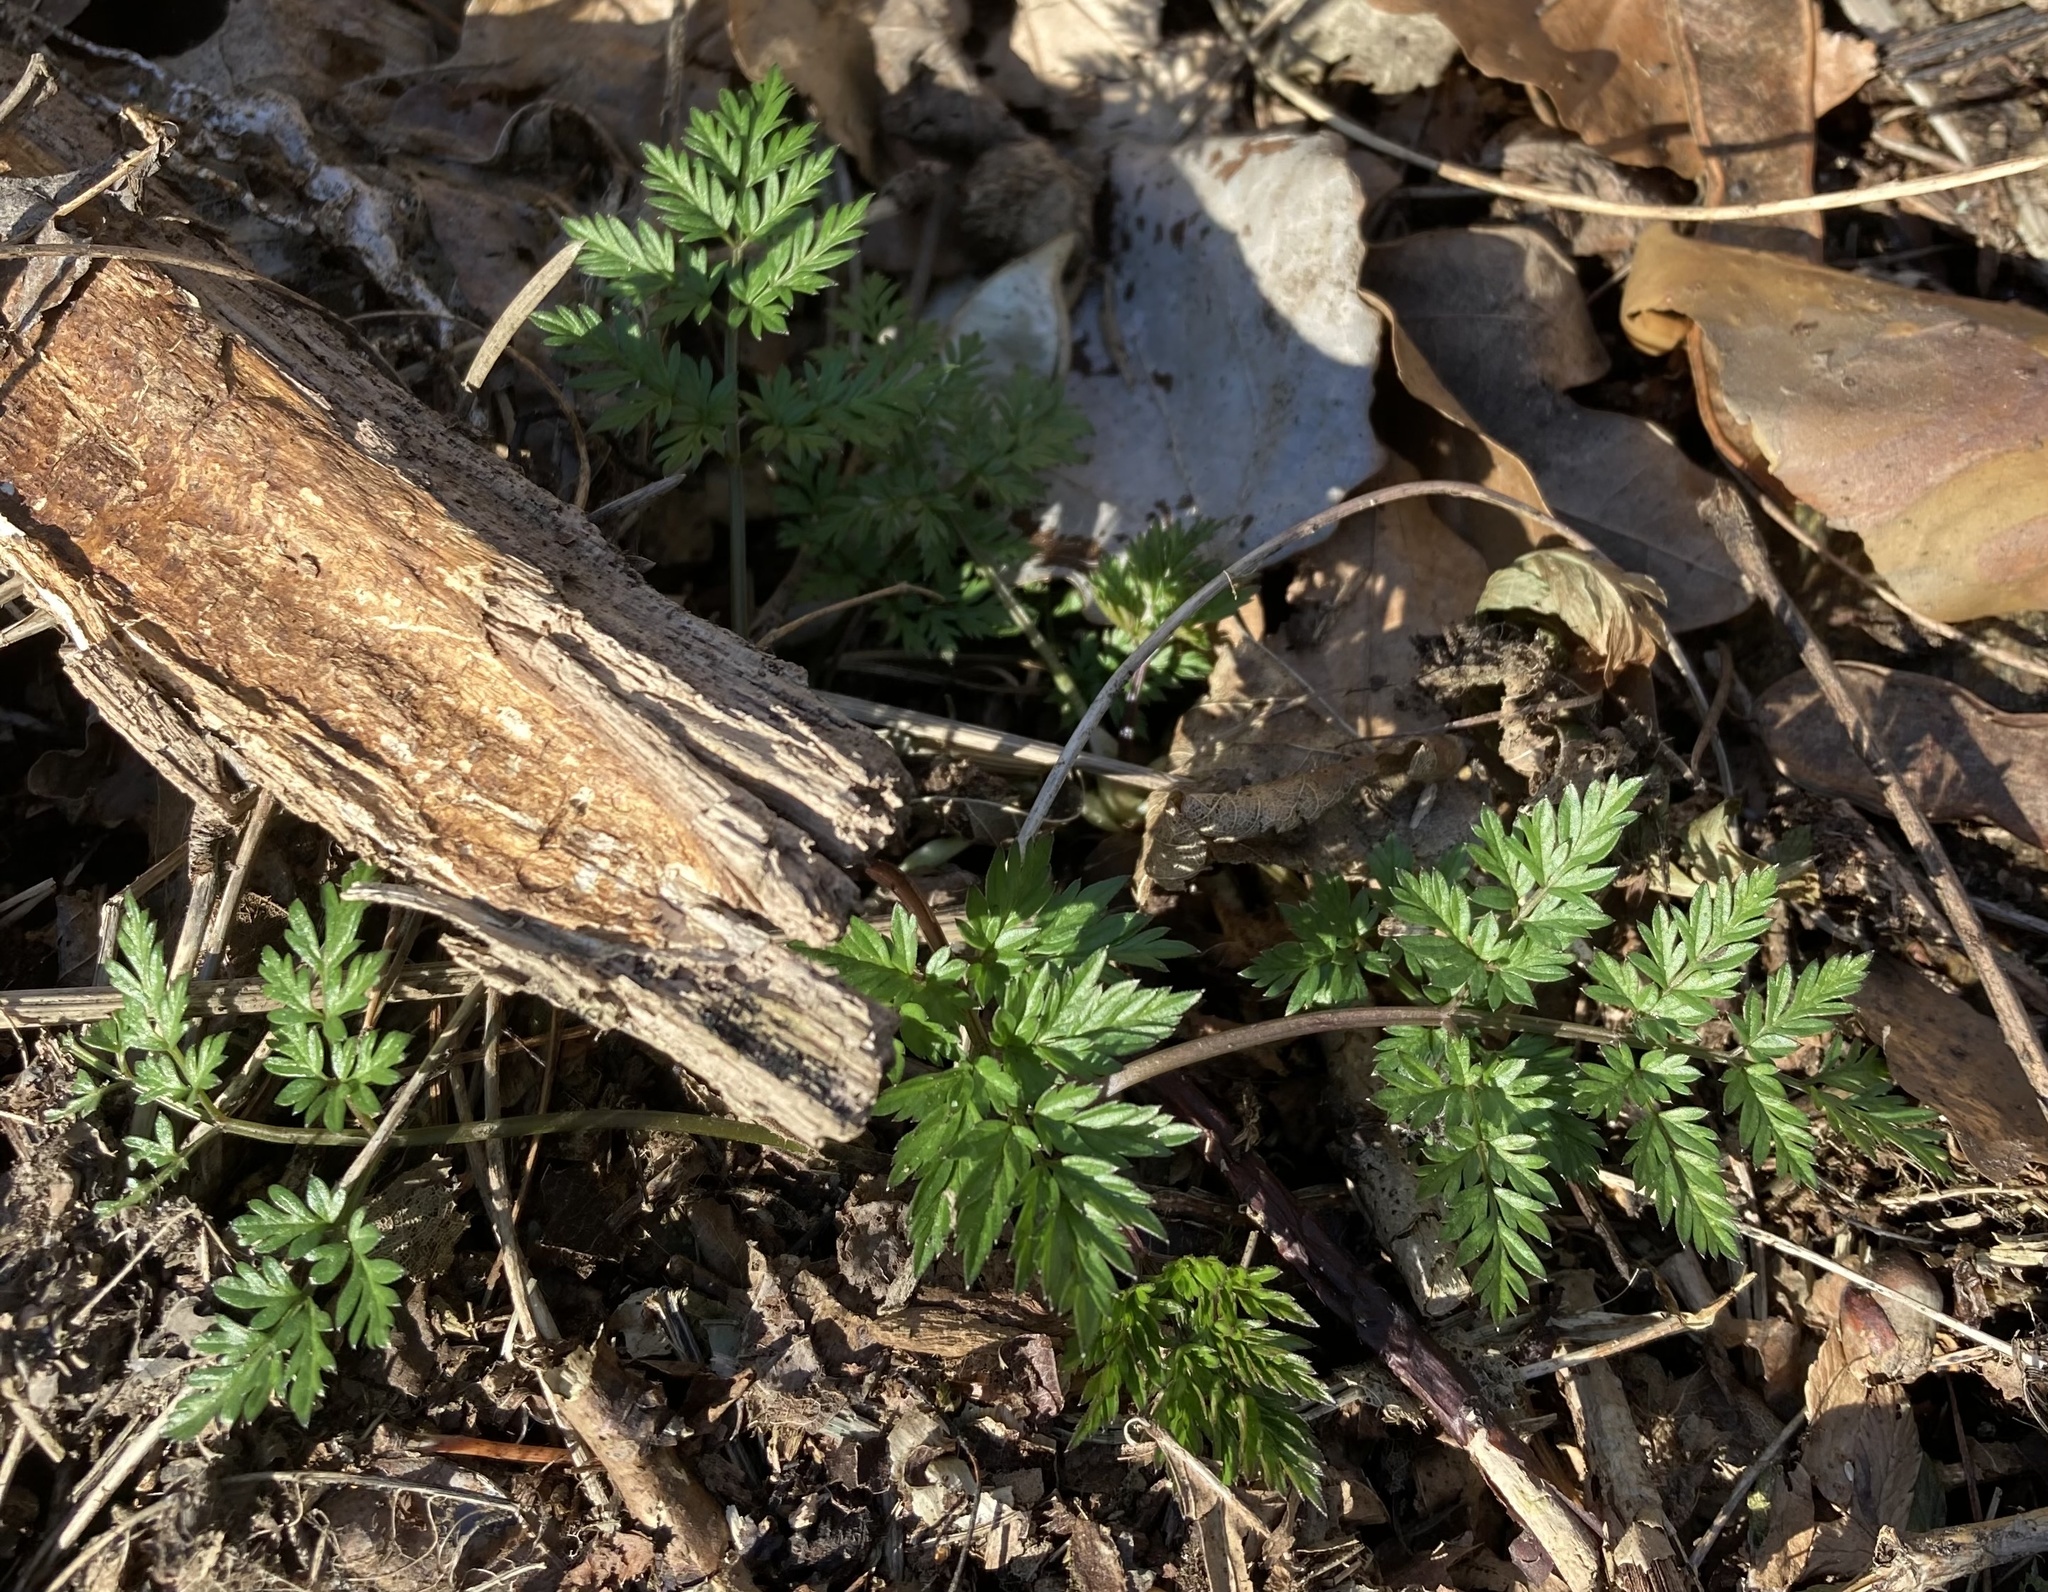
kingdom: Plantae
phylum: Tracheophyta
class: Magnoliopsida
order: Apiales
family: Apiaceae
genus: Anthriscus
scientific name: Anthriscus sylvestris
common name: Cow parsley
